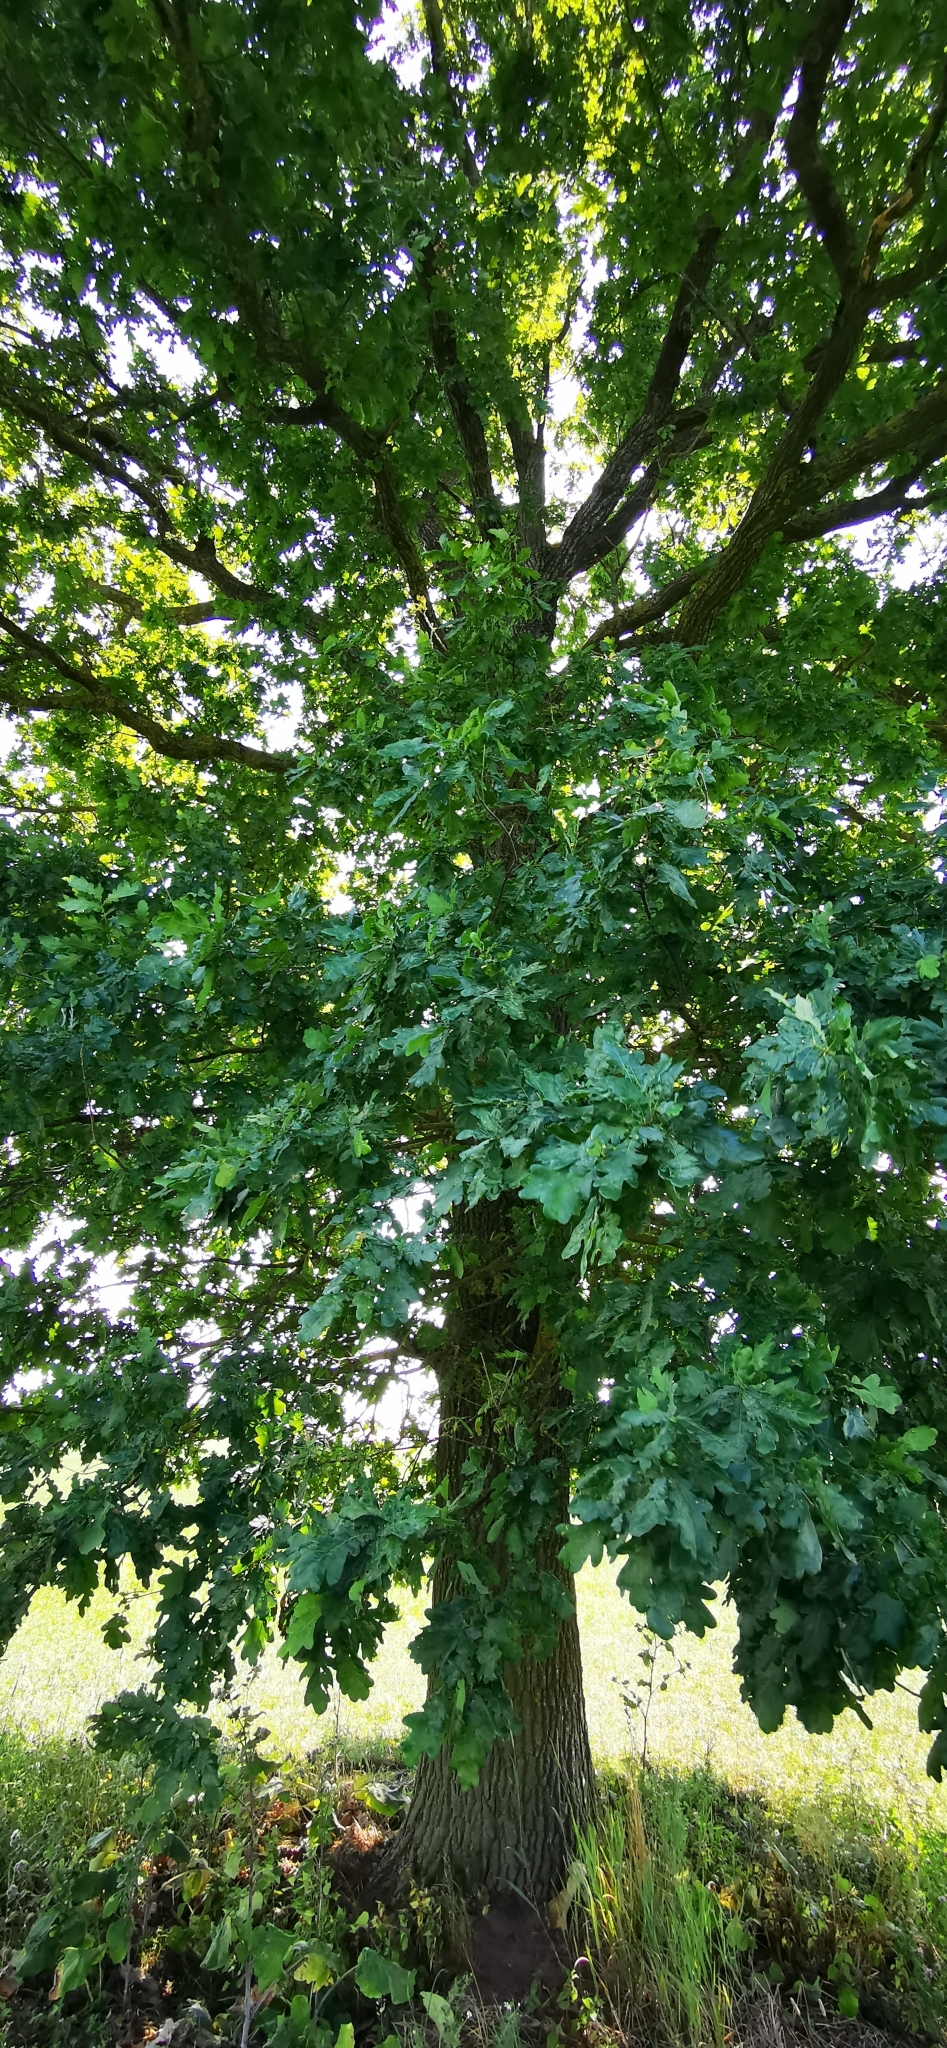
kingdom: Plantae
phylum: Tracheophyta
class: Magnoliopsida
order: Fagales
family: Fagaceae
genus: Quercus
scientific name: Quercus robur
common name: Pedunculate oak
